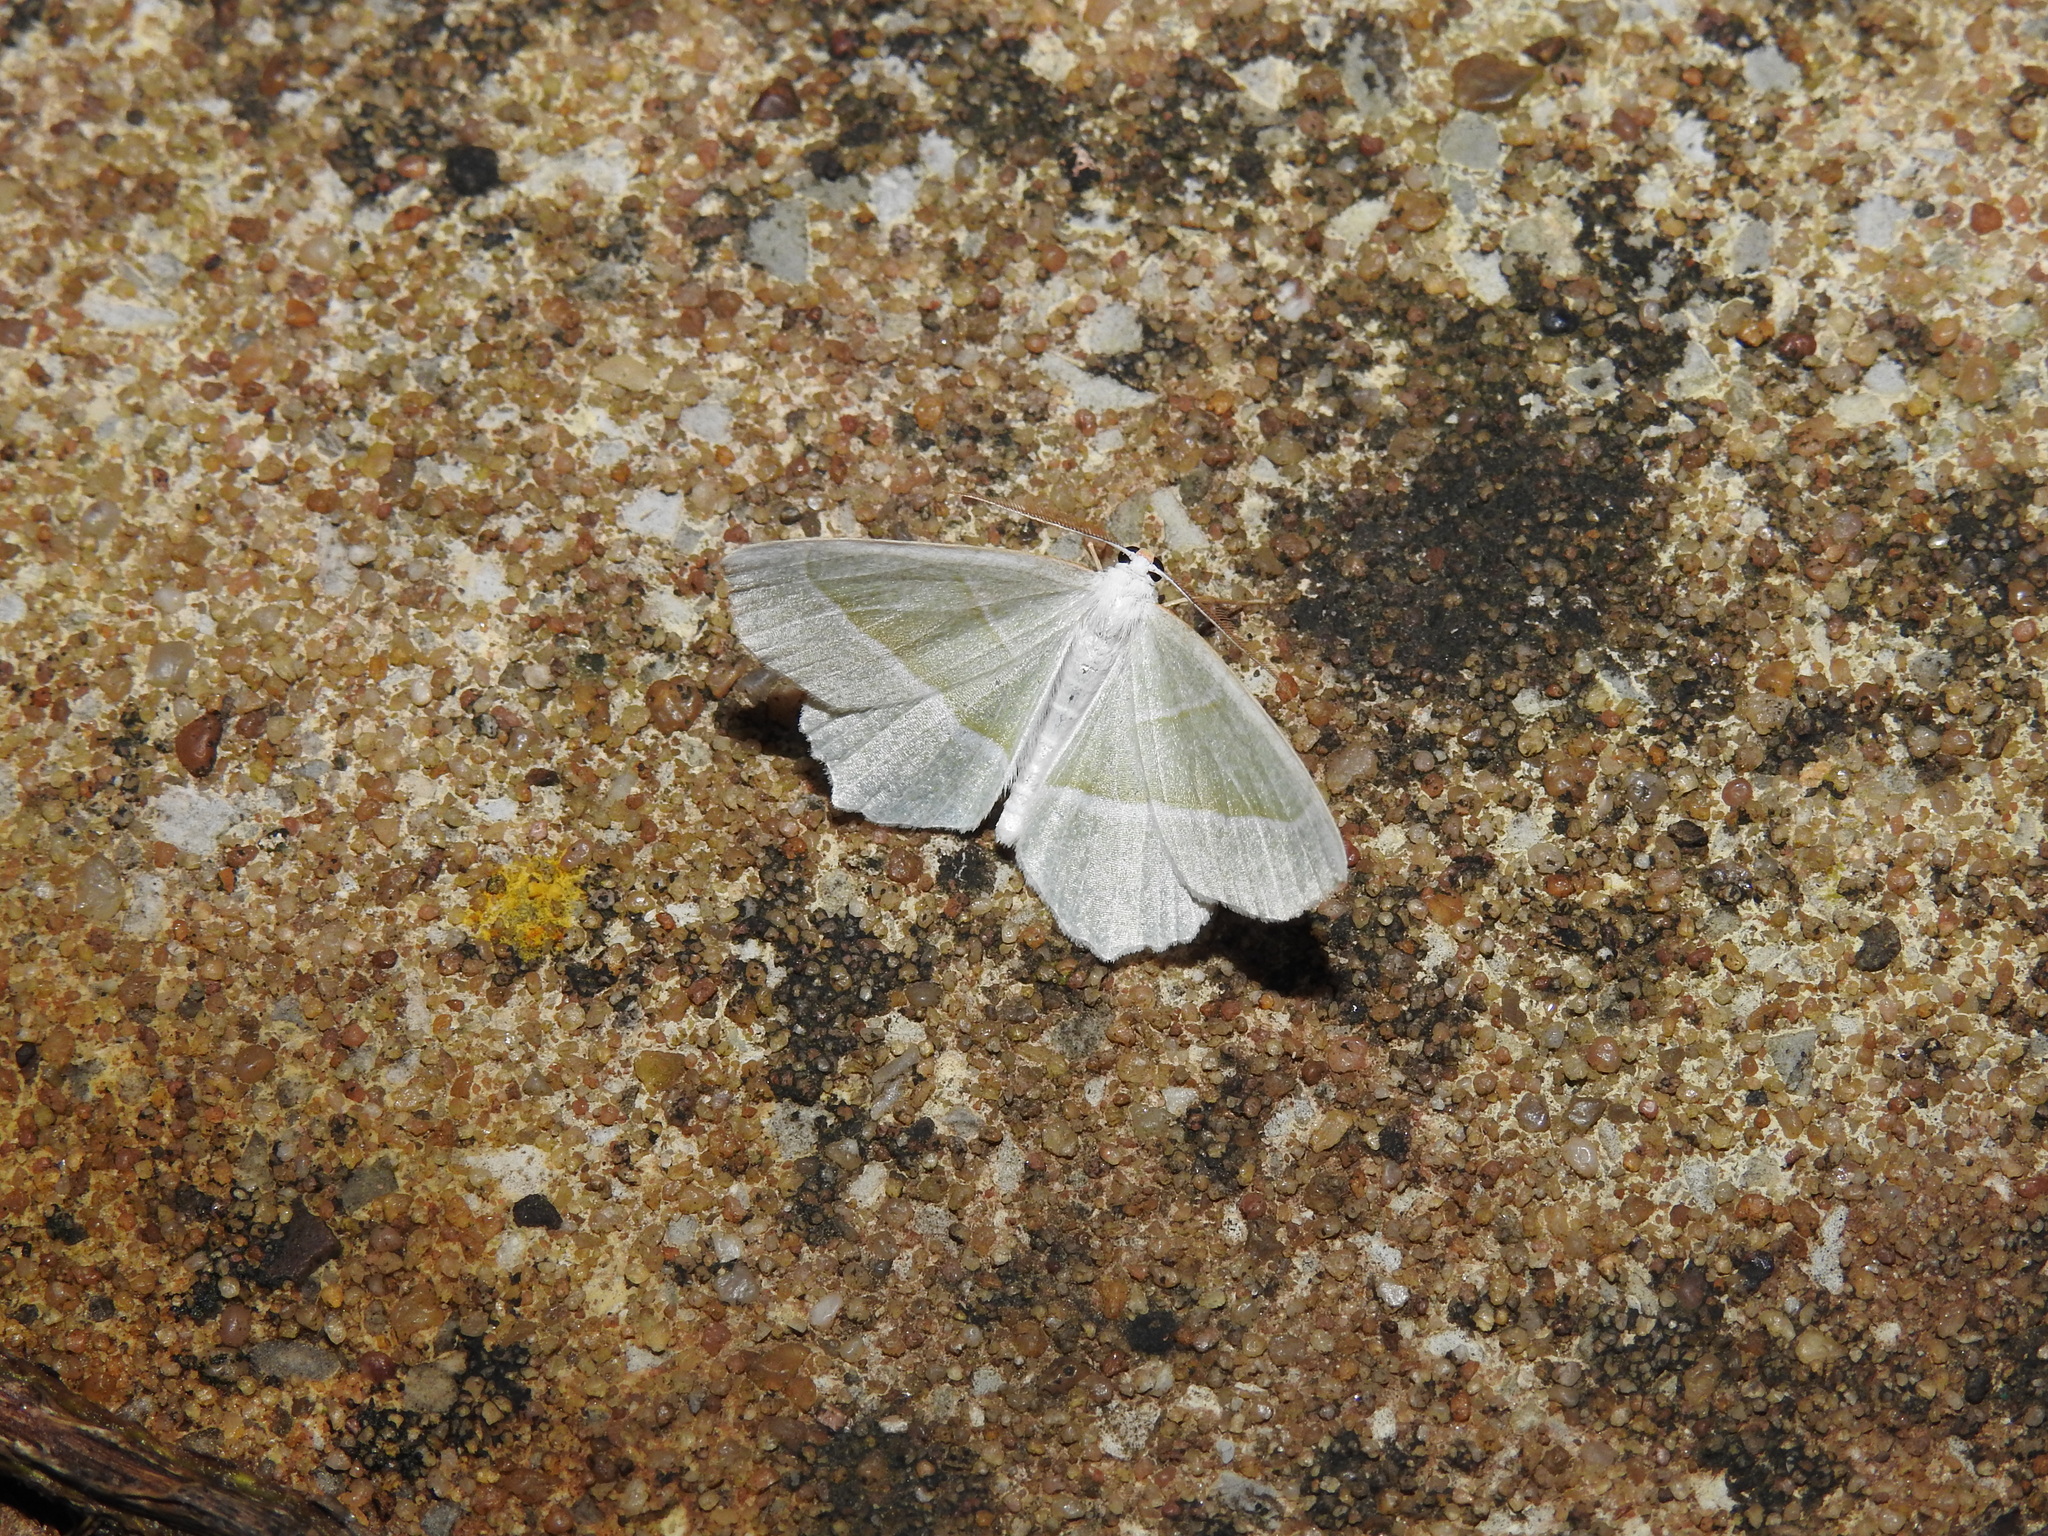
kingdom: Animalia
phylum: Arthropoda
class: Insecta
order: Lepidoptera
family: Geometridae
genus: Campaea
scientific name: Campaea margaritaria
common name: Light emerald
